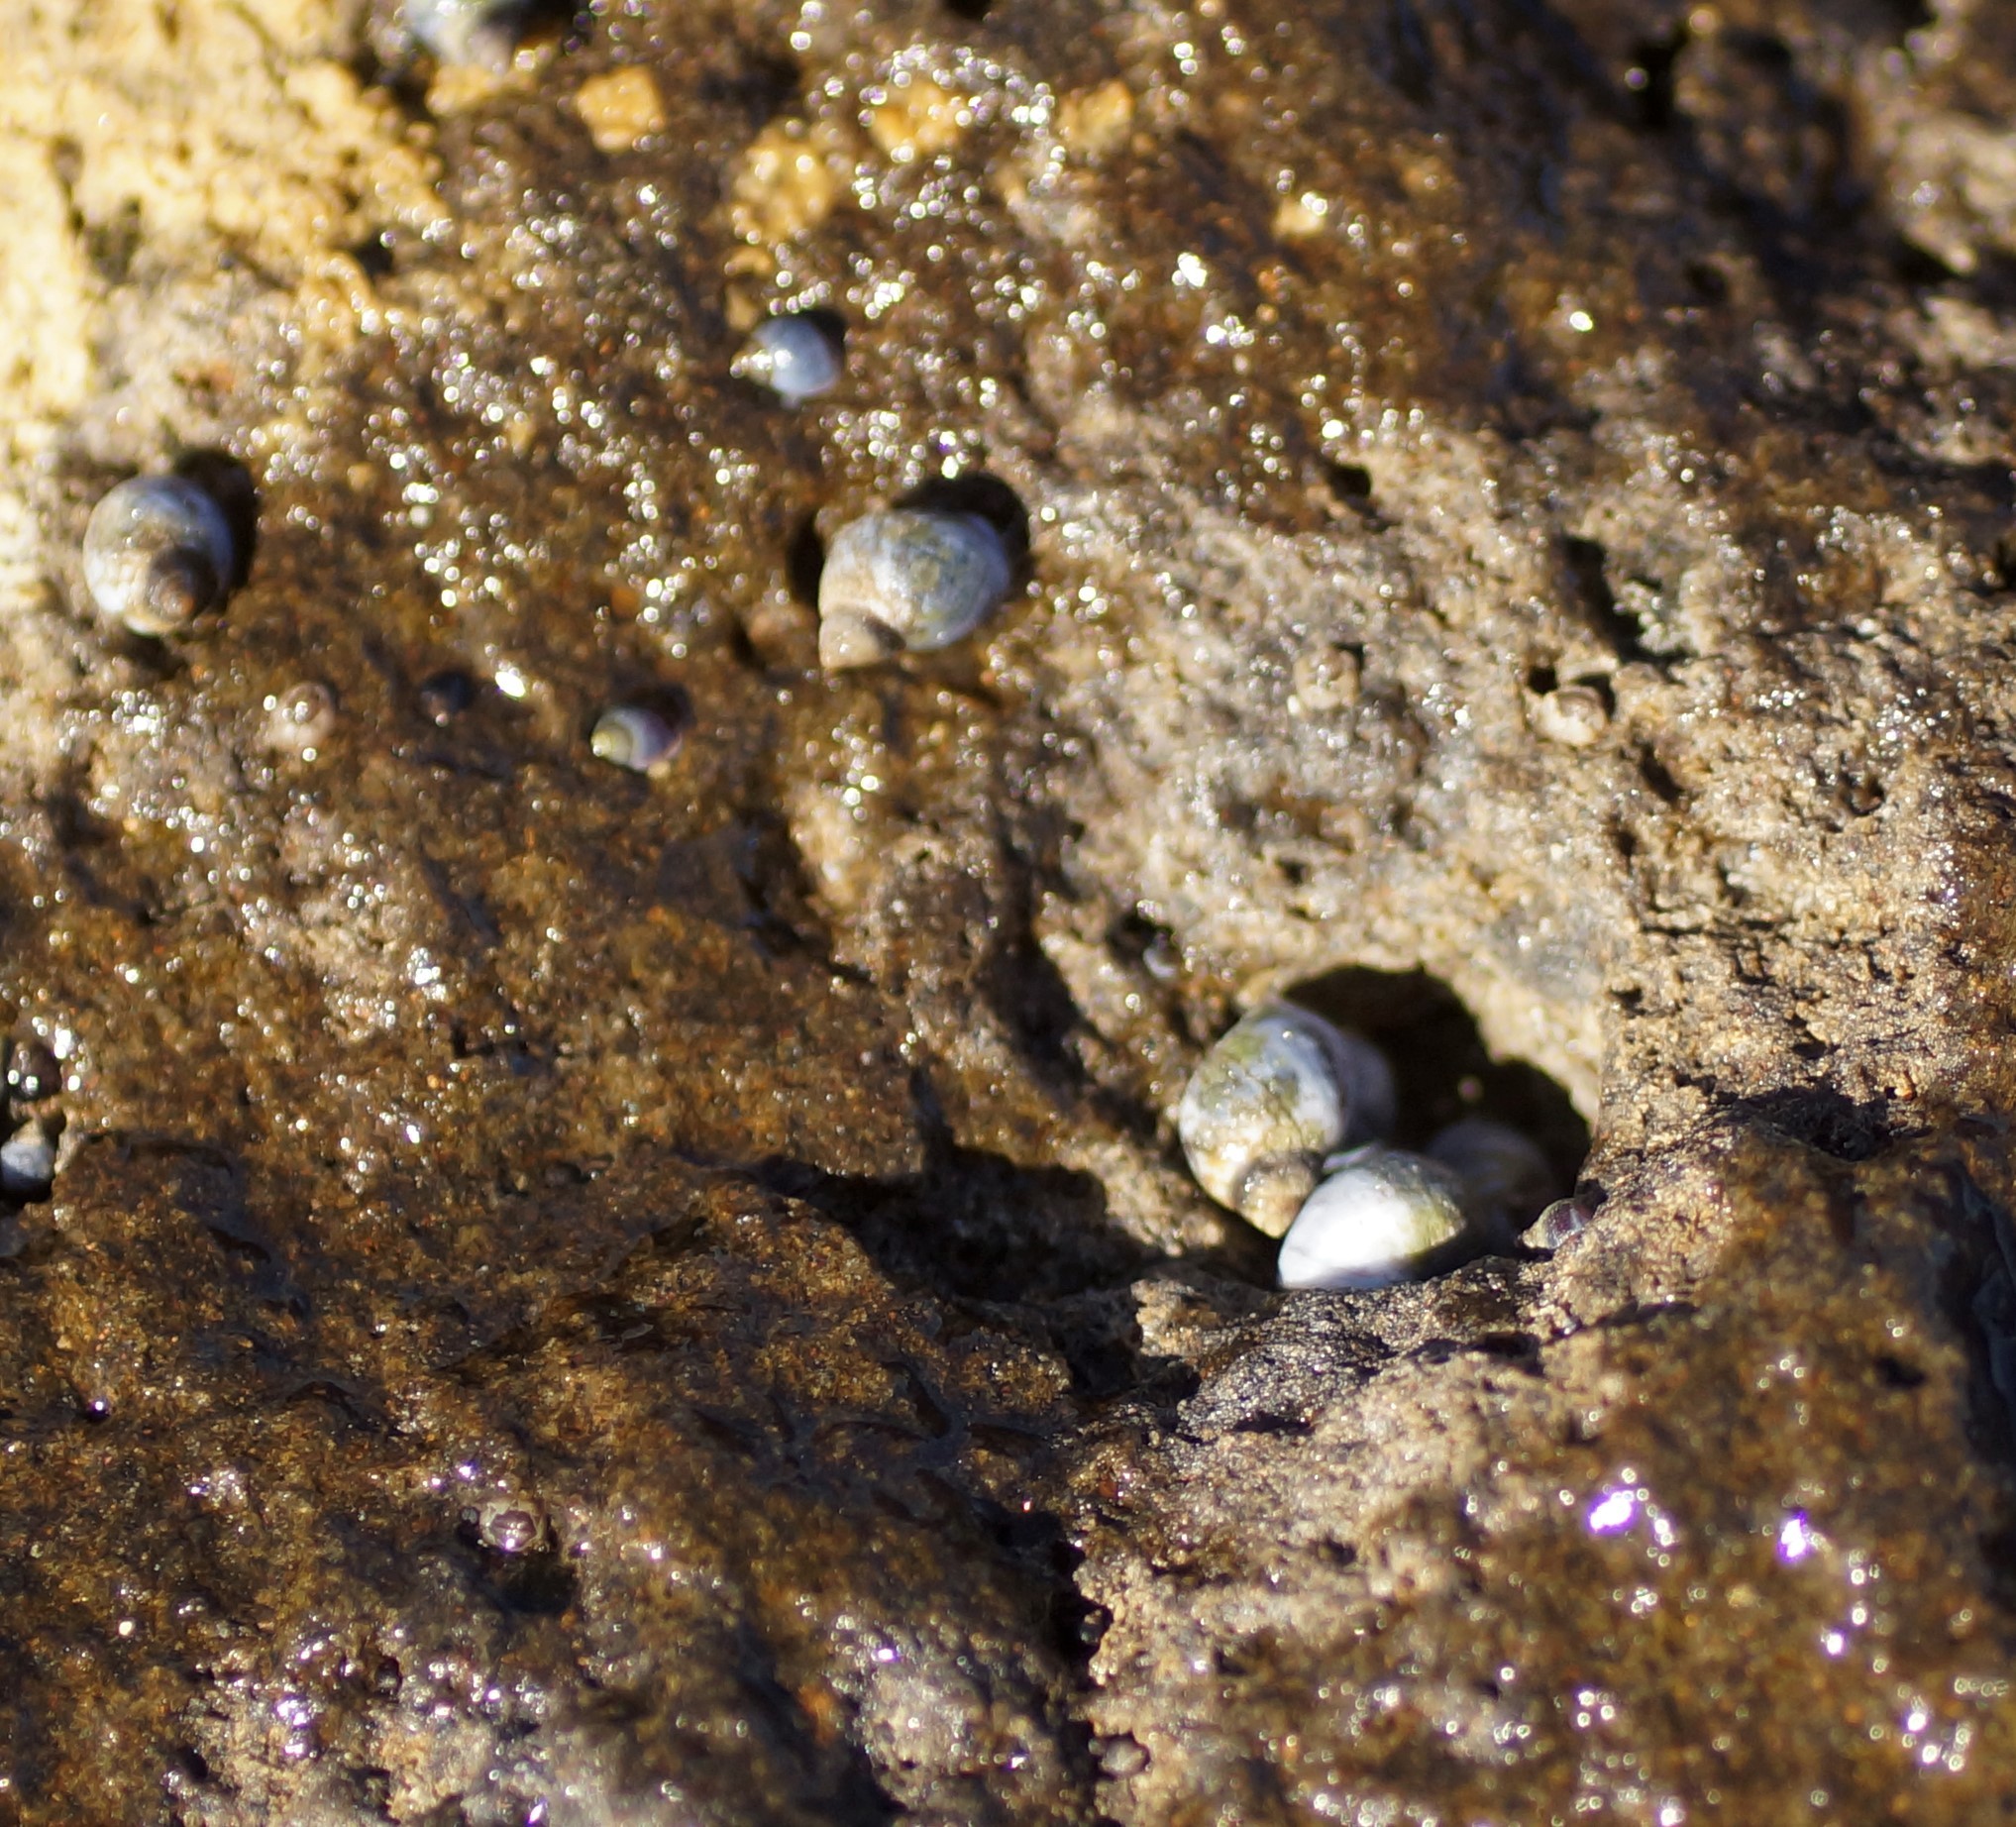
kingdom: Animalia
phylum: Mollusca
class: Gastropoda
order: Littorinimorpha
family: Littorinidae
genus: Austrolittorina
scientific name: Austrolittorina unifasciata
